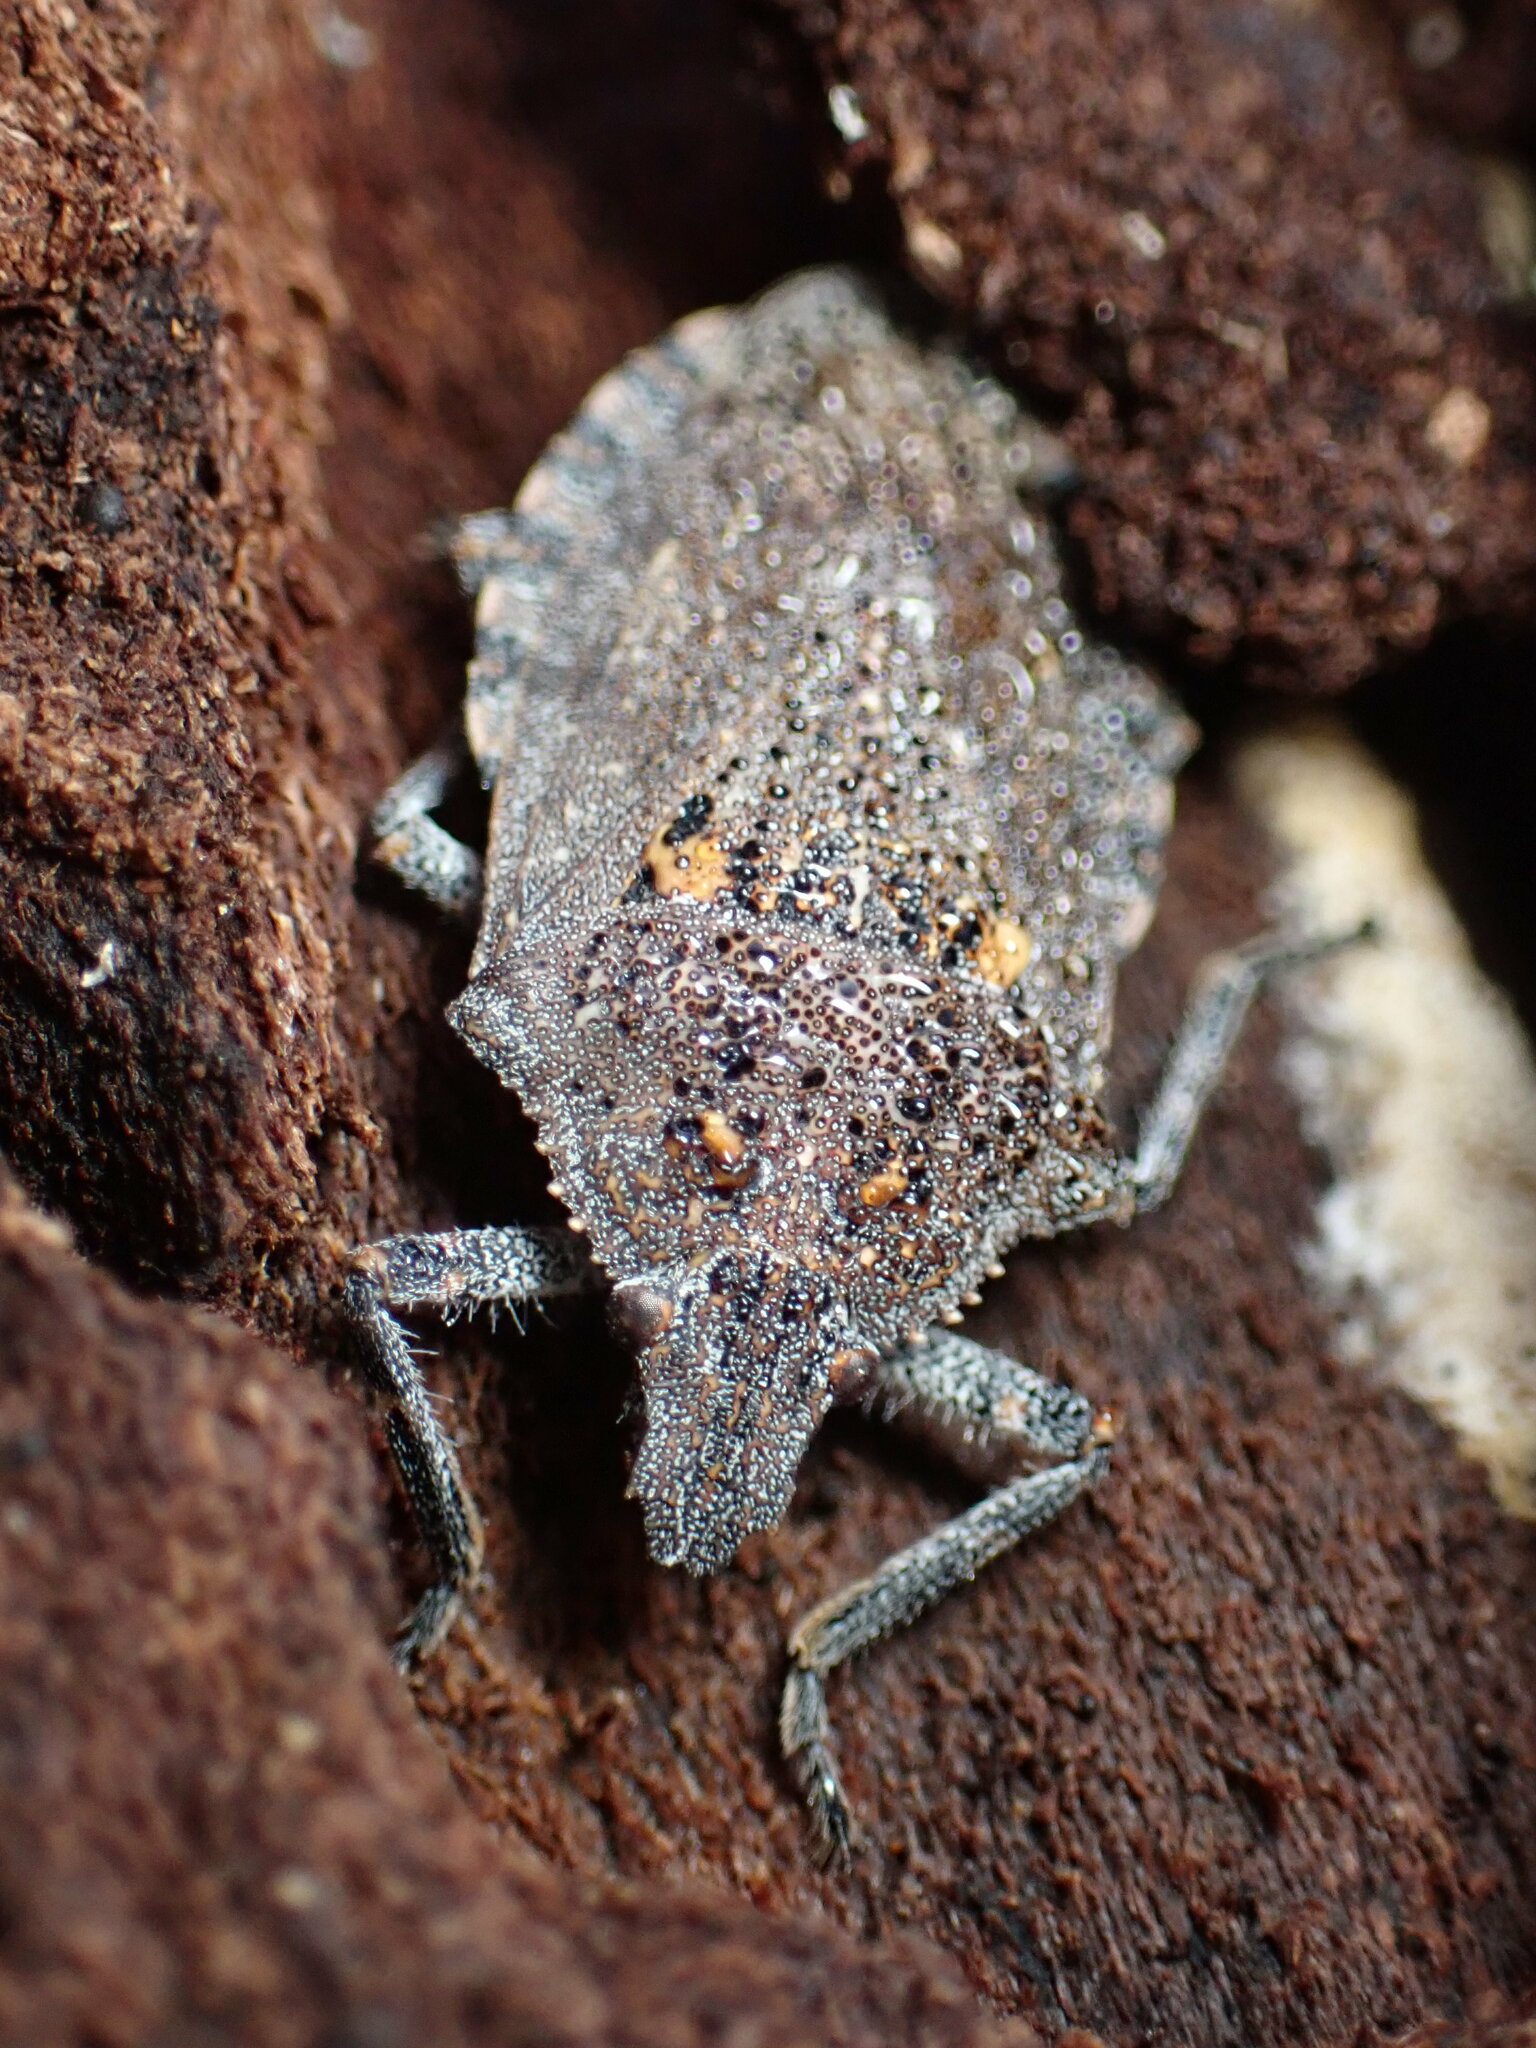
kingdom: Animalia
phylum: Arthropoda
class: Insecta
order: Hemiptera
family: Pentatomidae
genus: Brochymena
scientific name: Brochymena quadripustulata
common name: Four-humped stink bug
